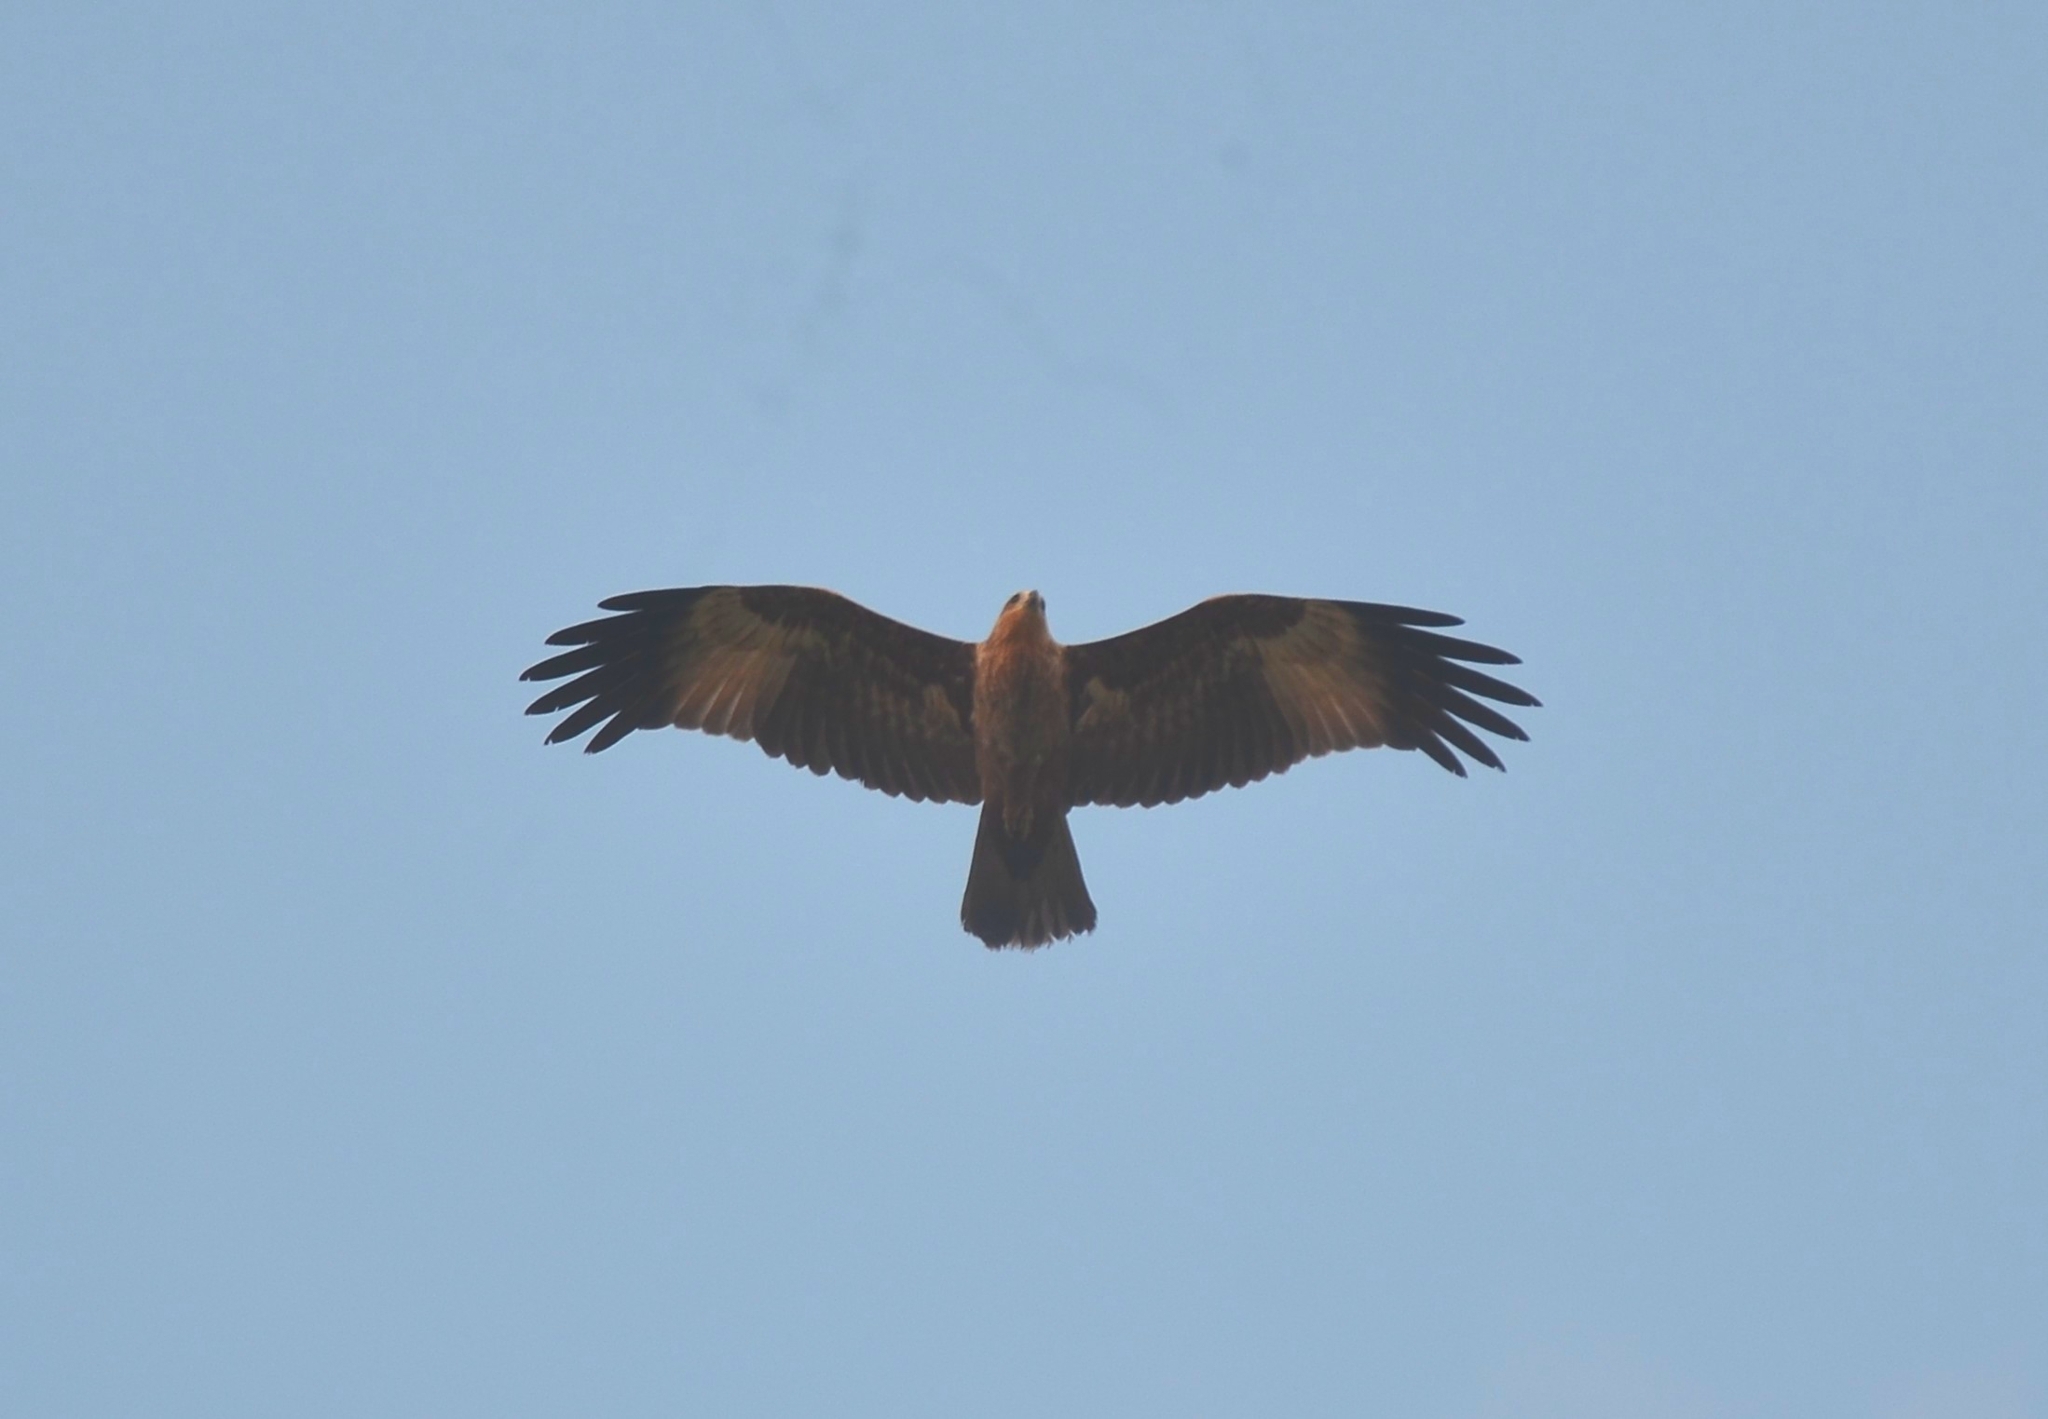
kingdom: Animalia
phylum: Chordata
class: Aves
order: Accipitriformes
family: Accipitridae
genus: Haliastur
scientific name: Haliastur indus
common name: Brahminy kite
